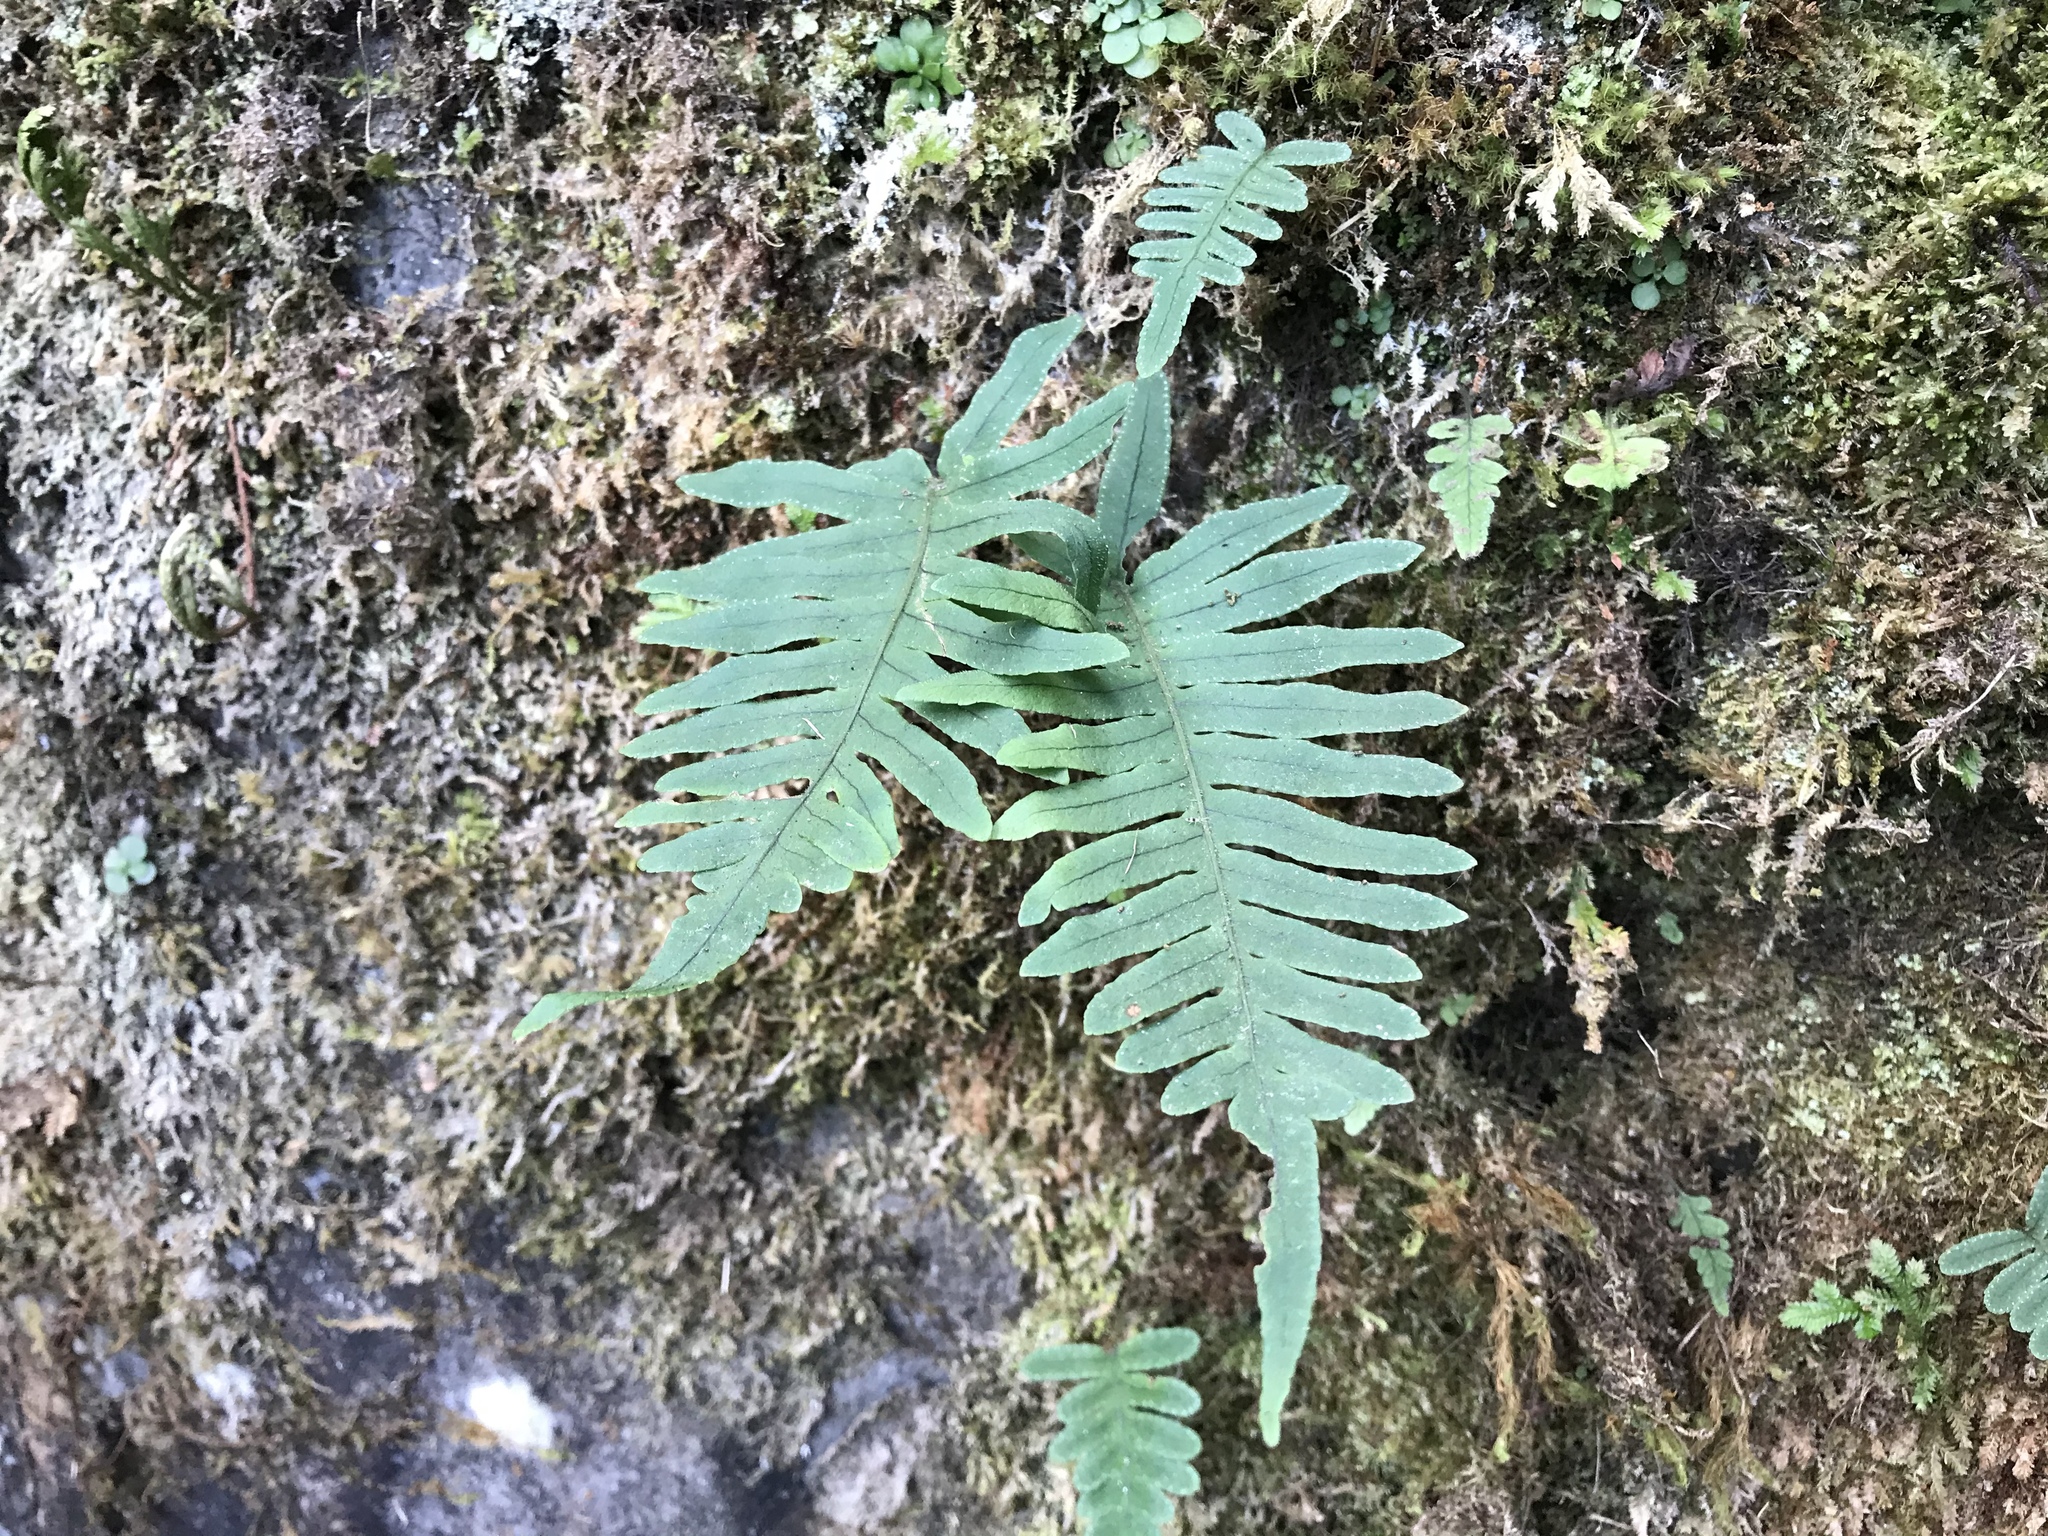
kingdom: Plantae
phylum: Tracheophyta
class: Polypodiopsida
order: Polypodiales
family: Polypodiaceae
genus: Goniophlebium
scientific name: Goniophlebium amoenum
